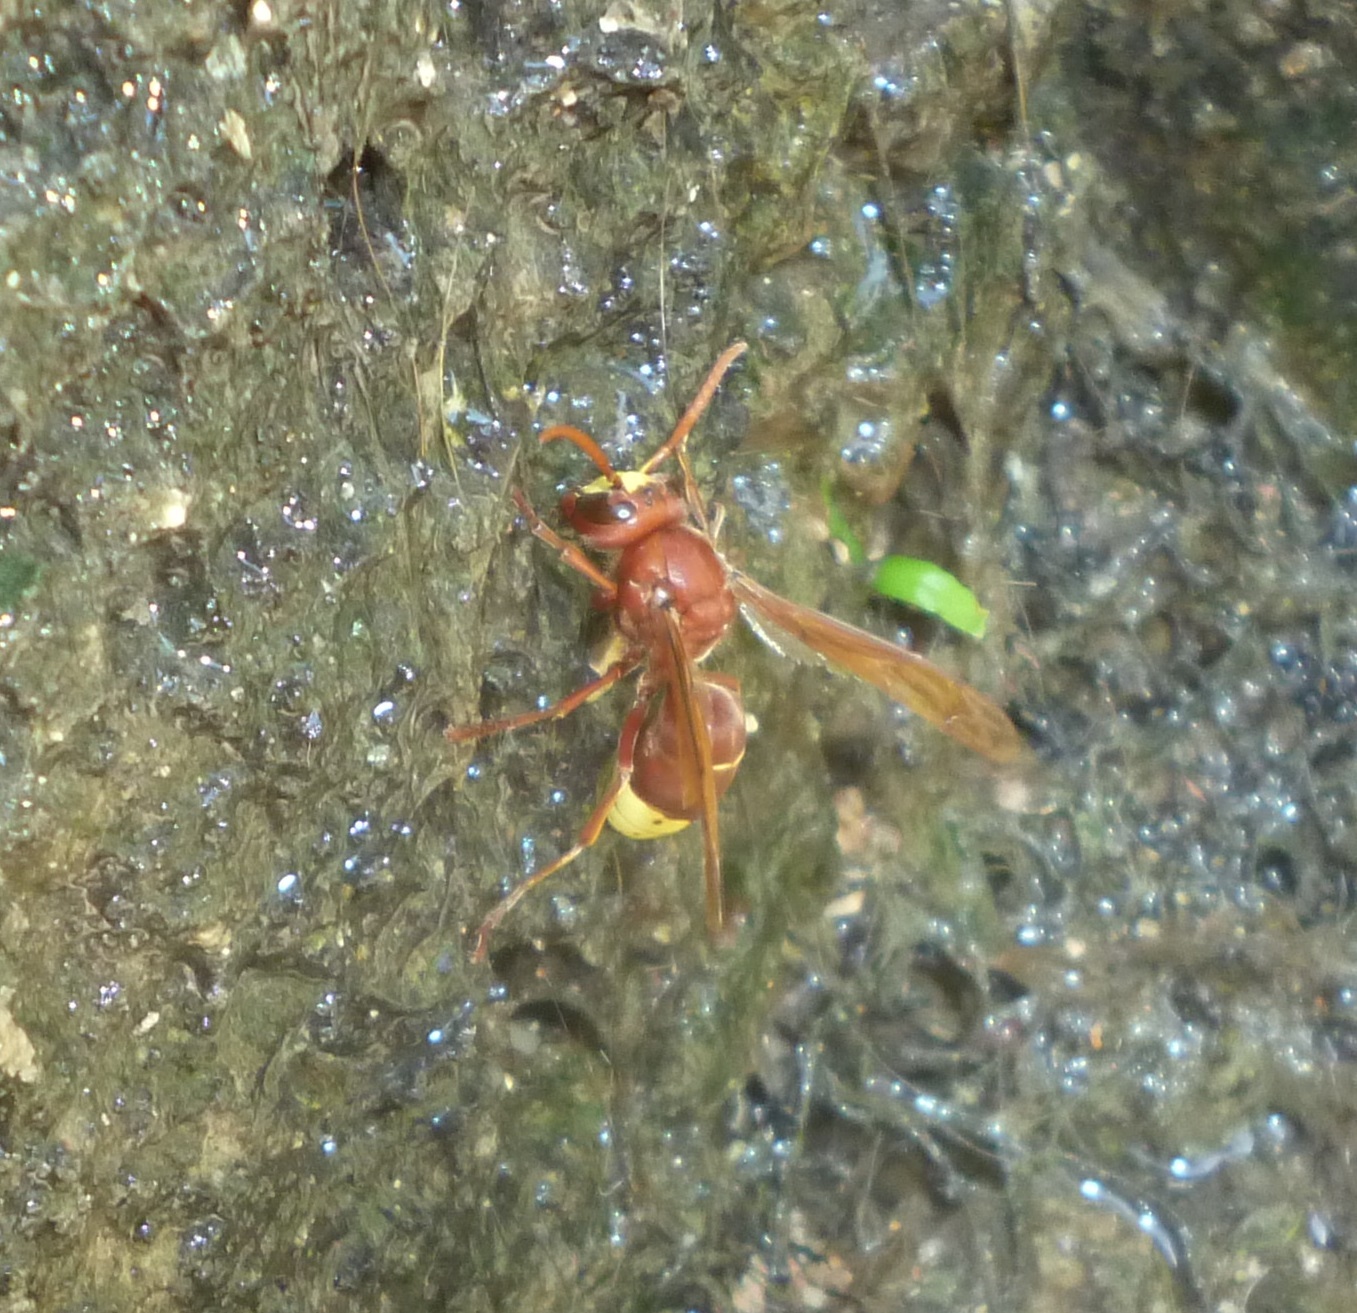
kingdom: Animalia
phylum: Arthropoda
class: Insecta
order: Hymenoptera
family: Vespidae
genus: Vespa
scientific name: Vespa orientalis
